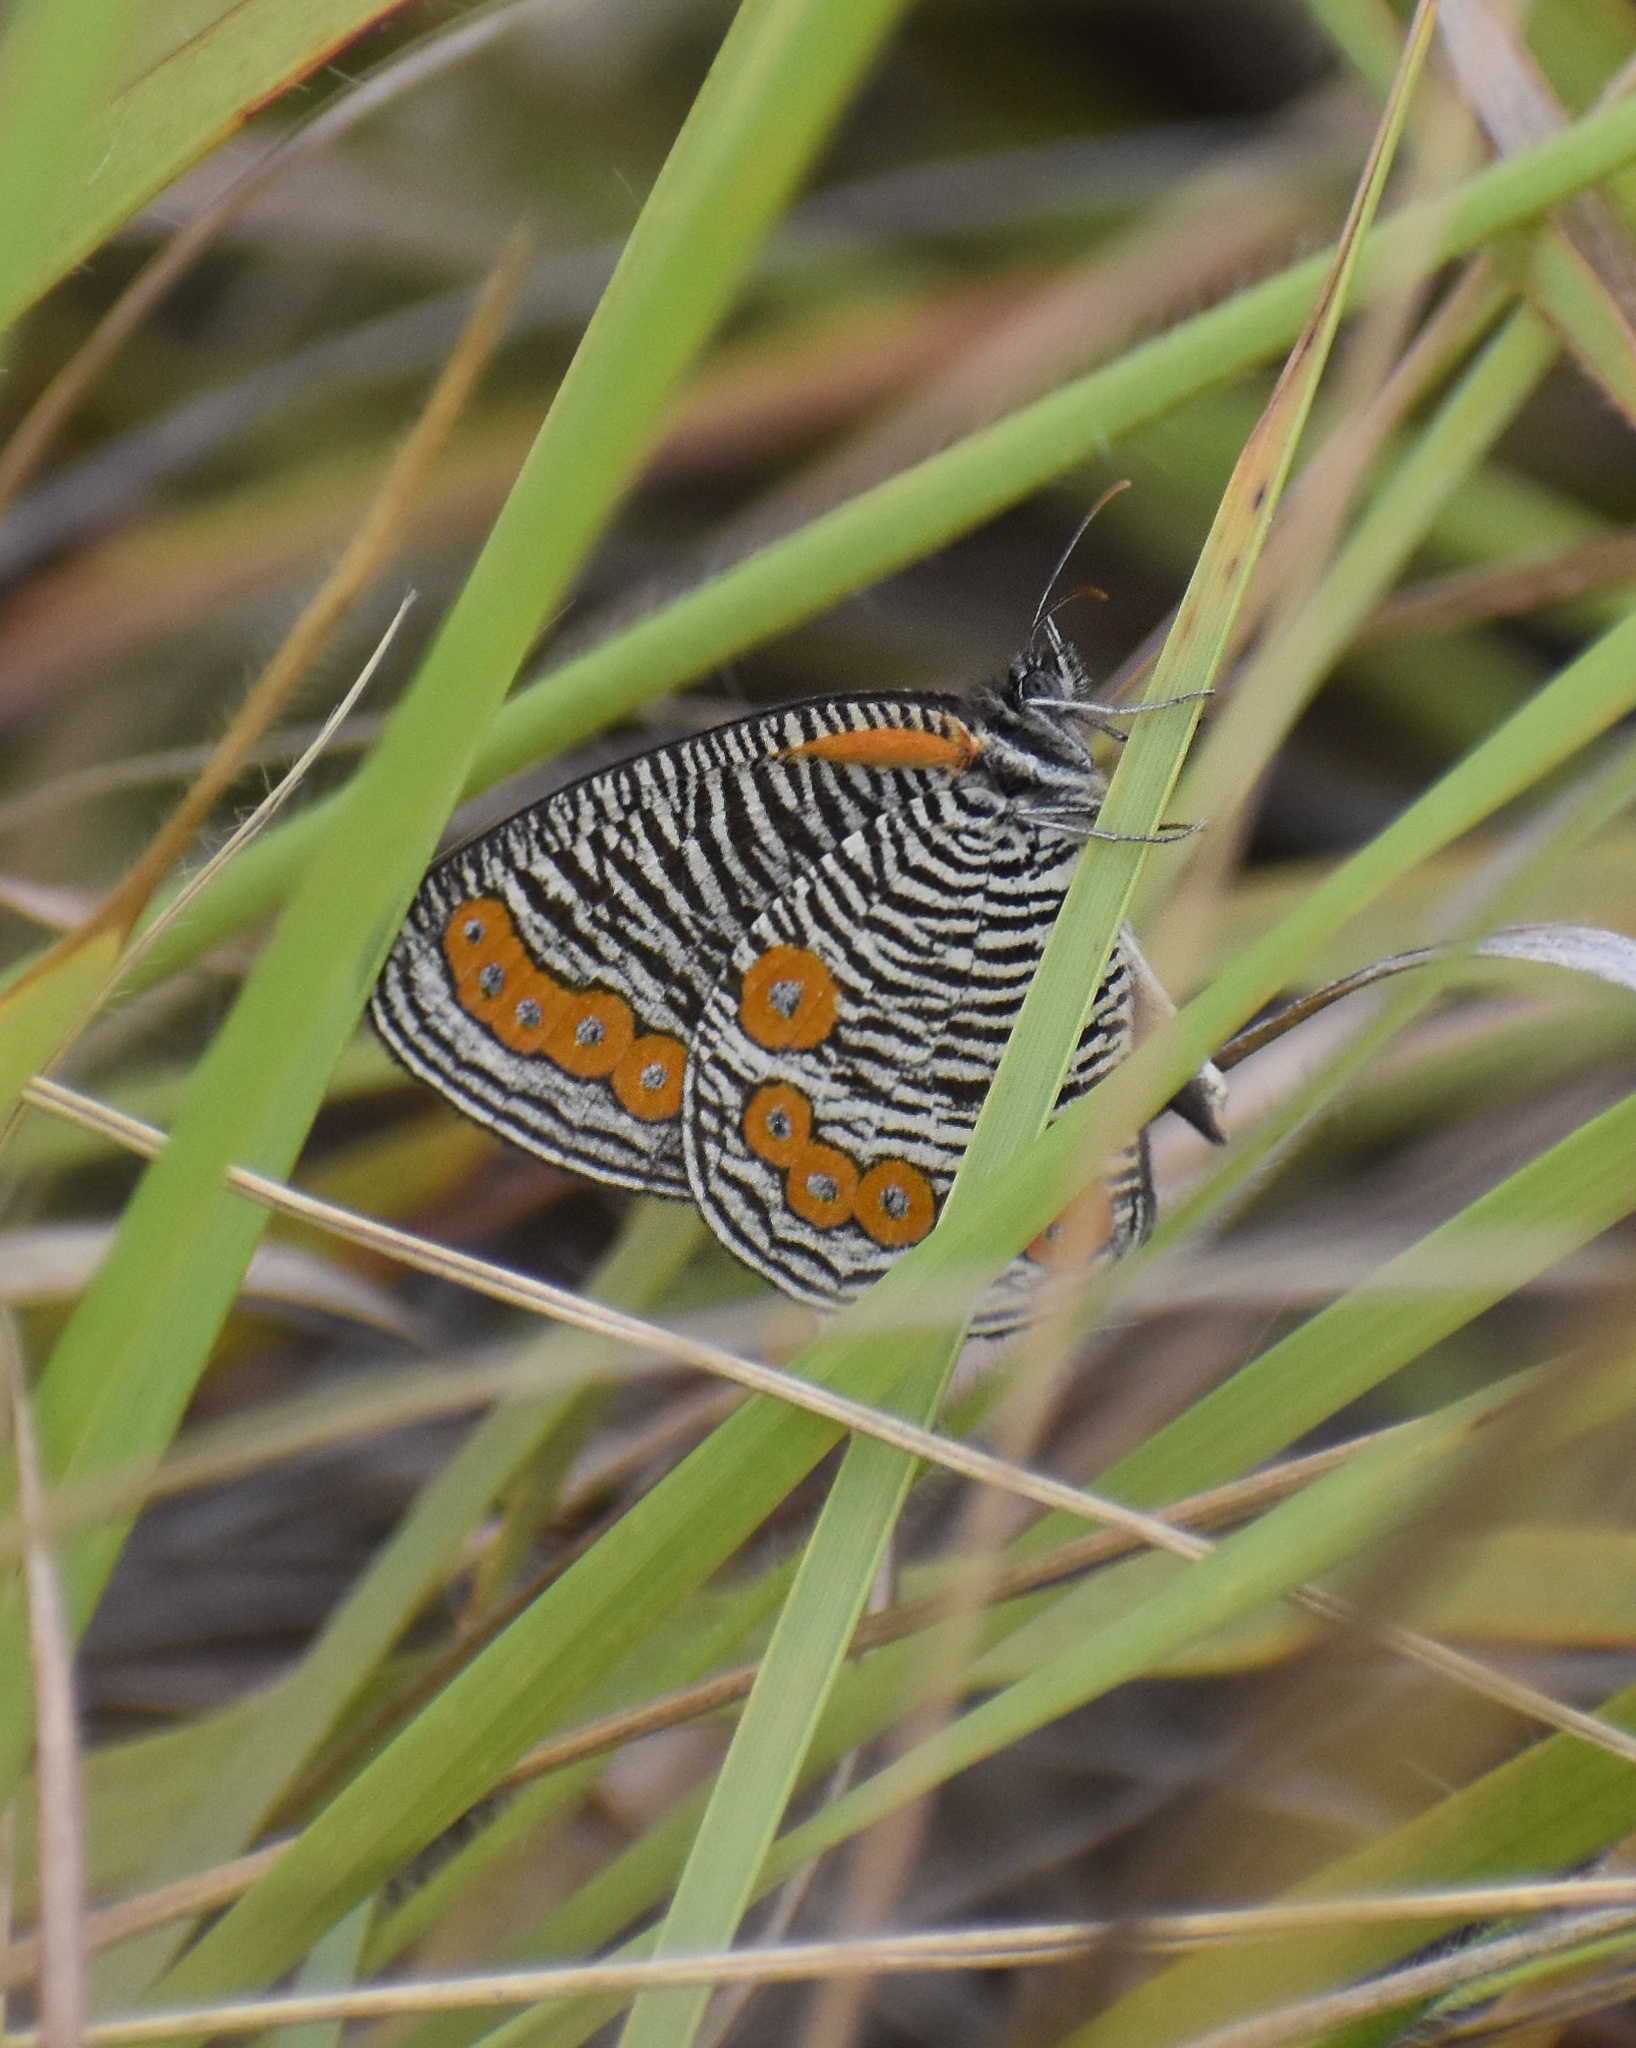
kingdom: Animalia
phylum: Arthropoda
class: Insecta
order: Lepidoptera
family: Nymphalidae
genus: Physcaeneura
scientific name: Physcaeneura panda
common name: Dark-webbed ringlet
